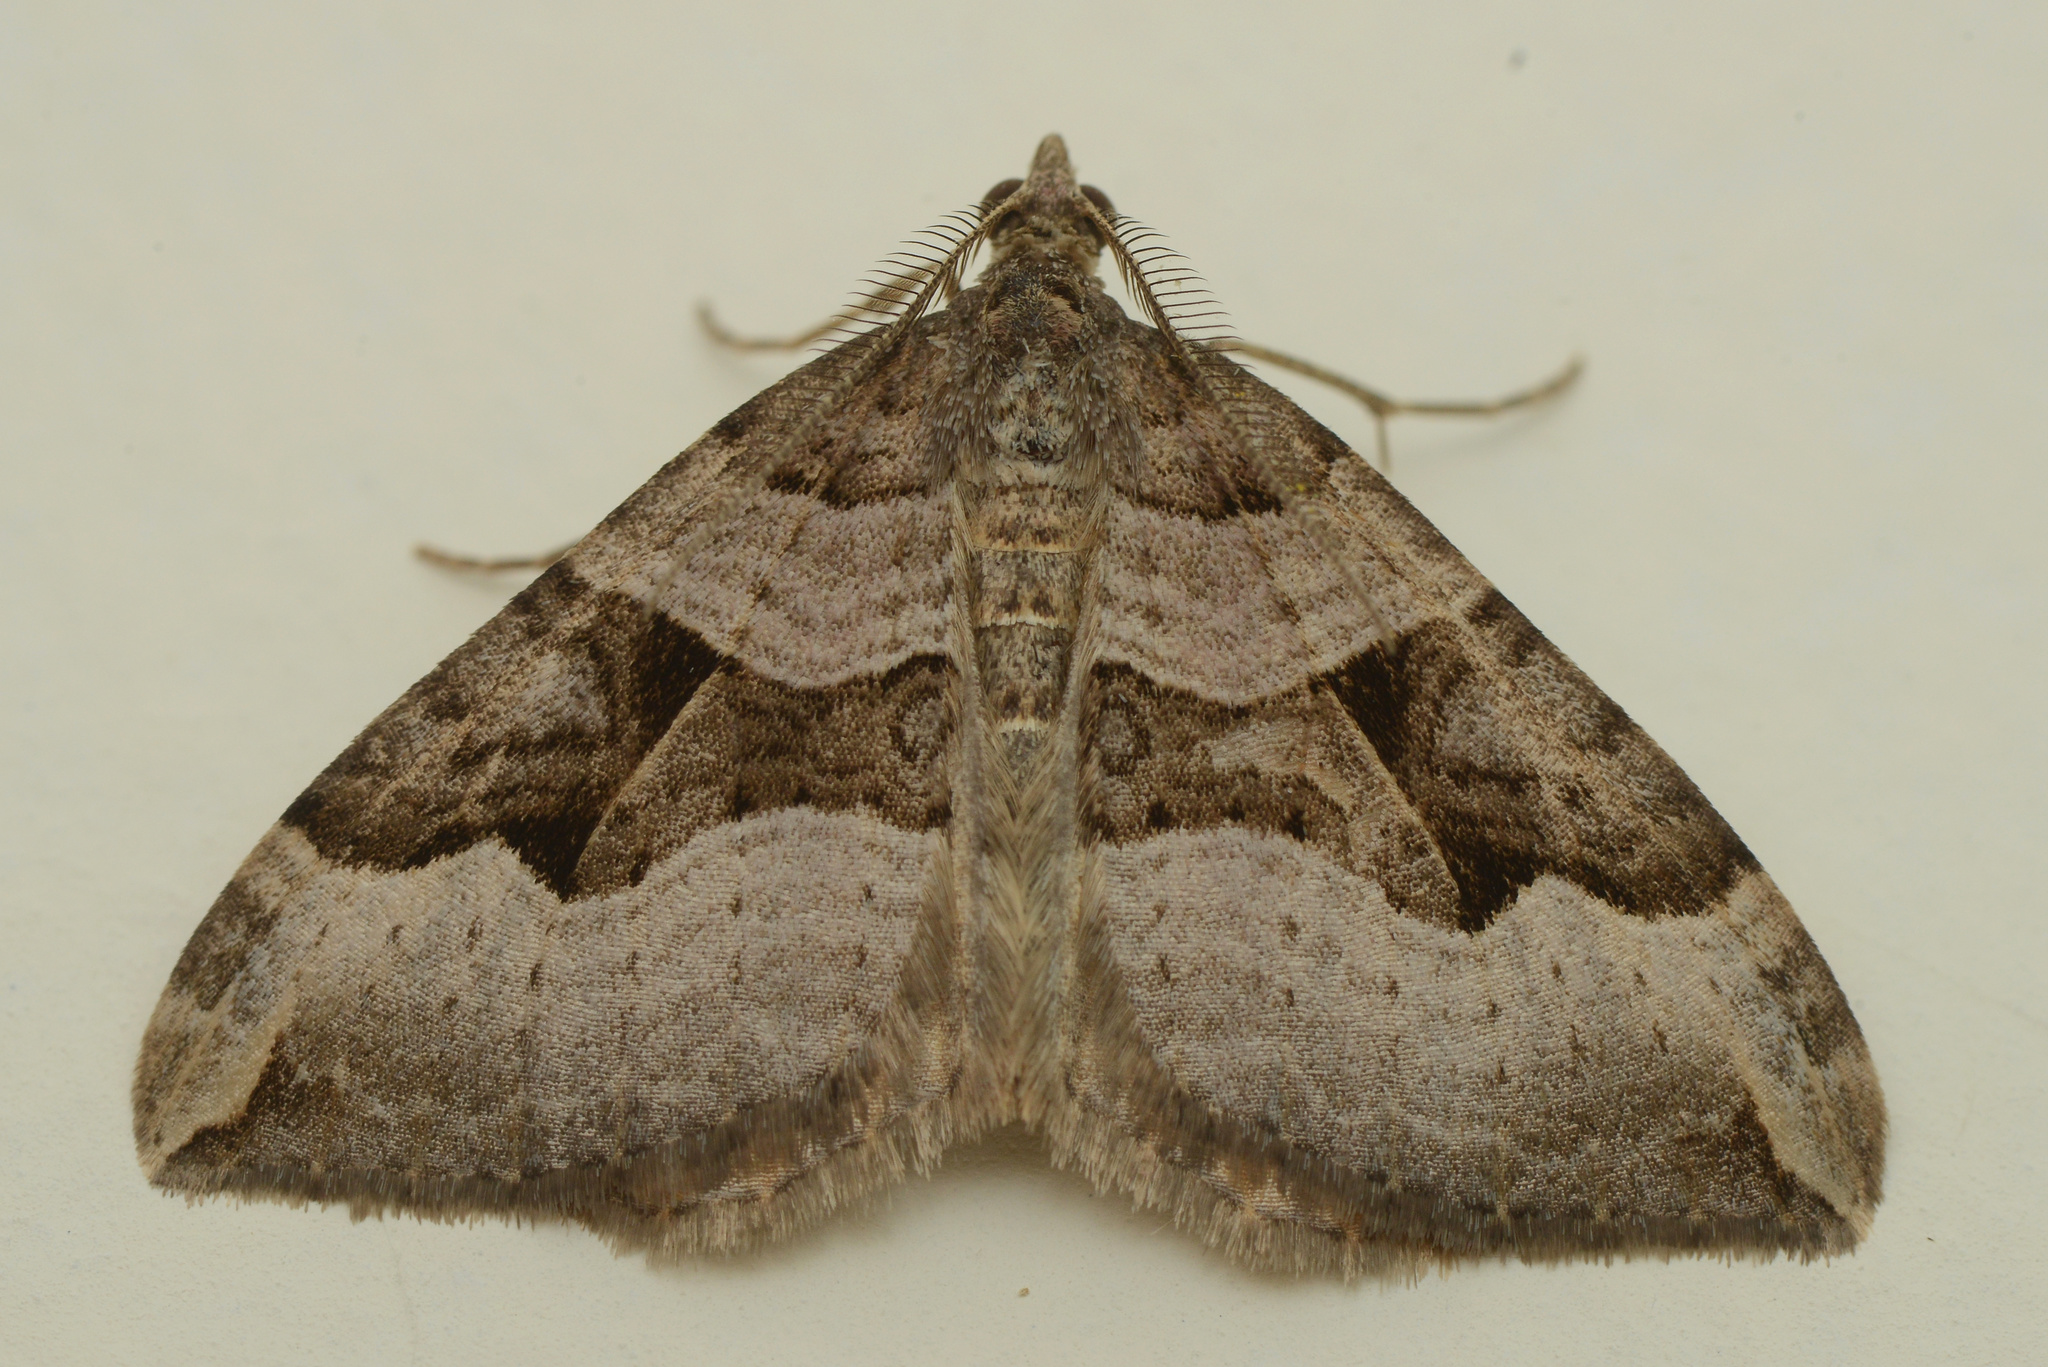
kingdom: Animalia
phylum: Arthropoda
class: Insecta
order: Lepidoptera
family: Geometridae
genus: Xanthorhoe
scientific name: Xanthorhoe semifissata
